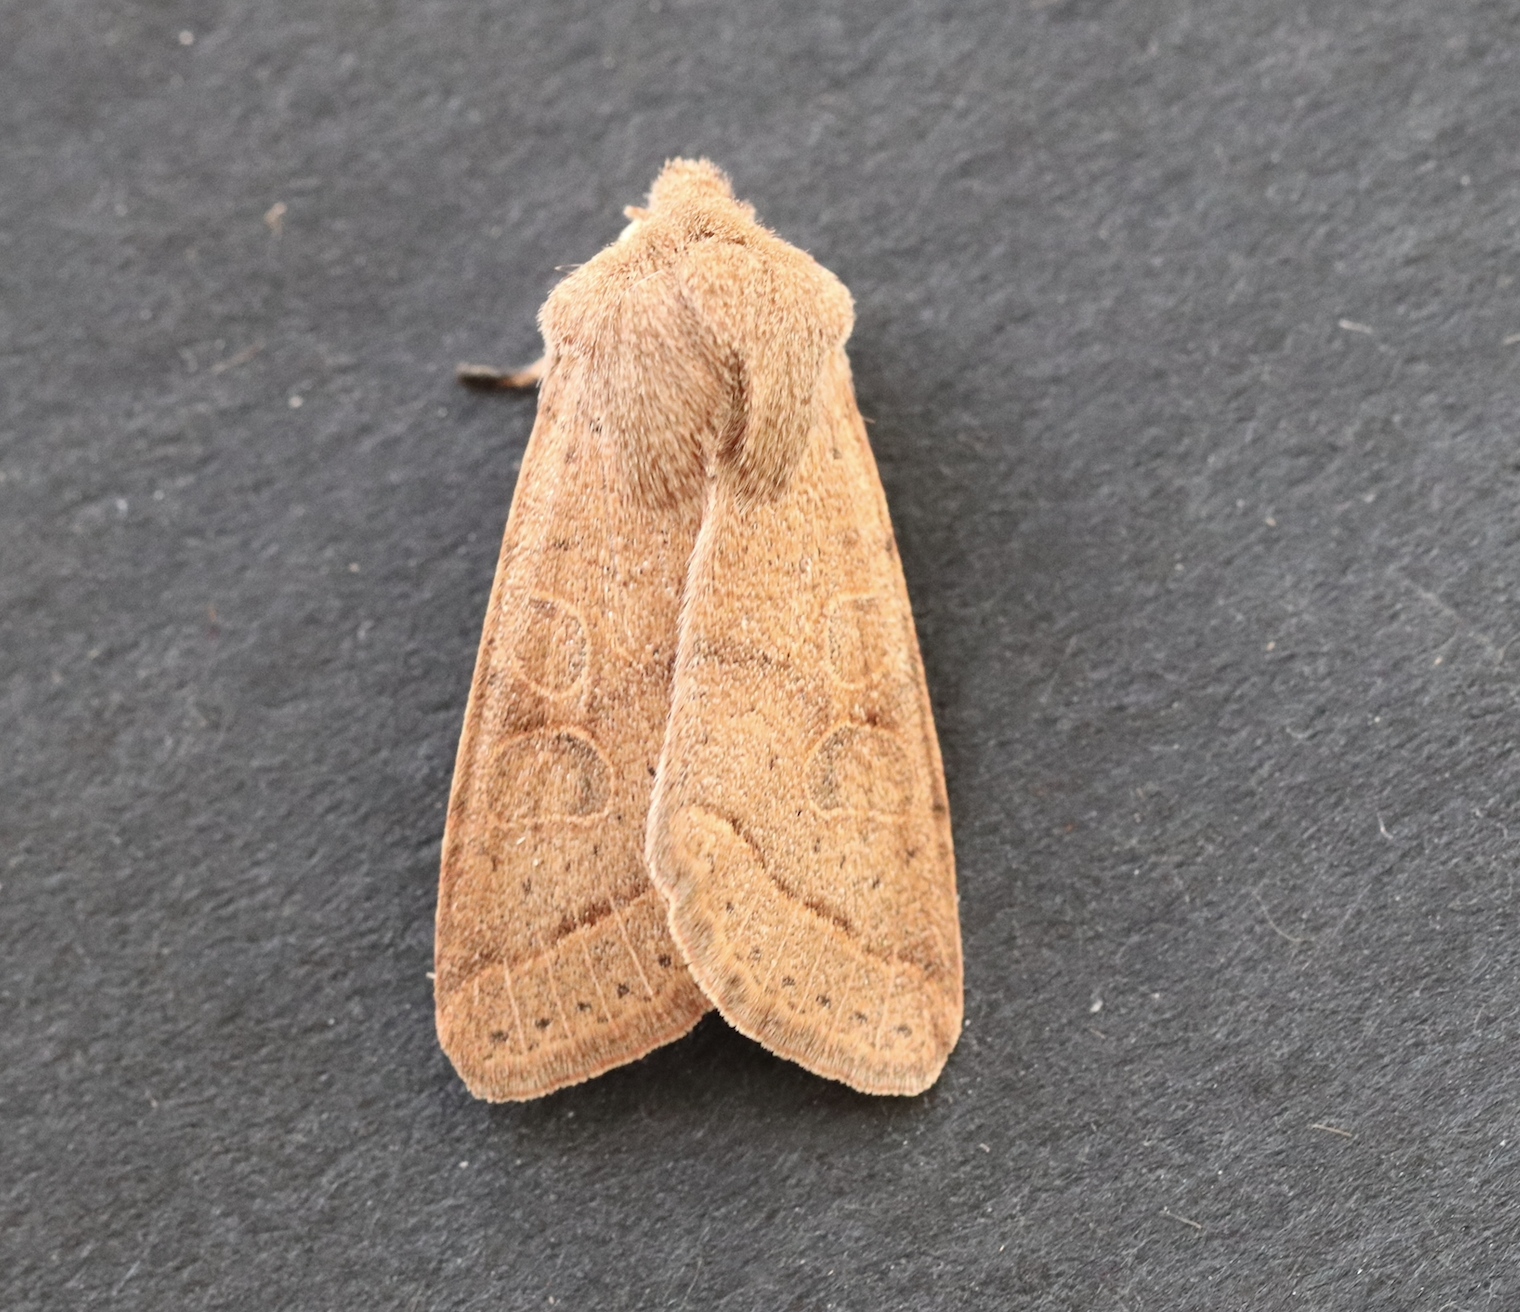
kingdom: Animalia
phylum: Arthropoda
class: Insecta
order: Lepidoptera
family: Noctuidae
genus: Orthosia
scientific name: Orthosia cerasi
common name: Common quaker
